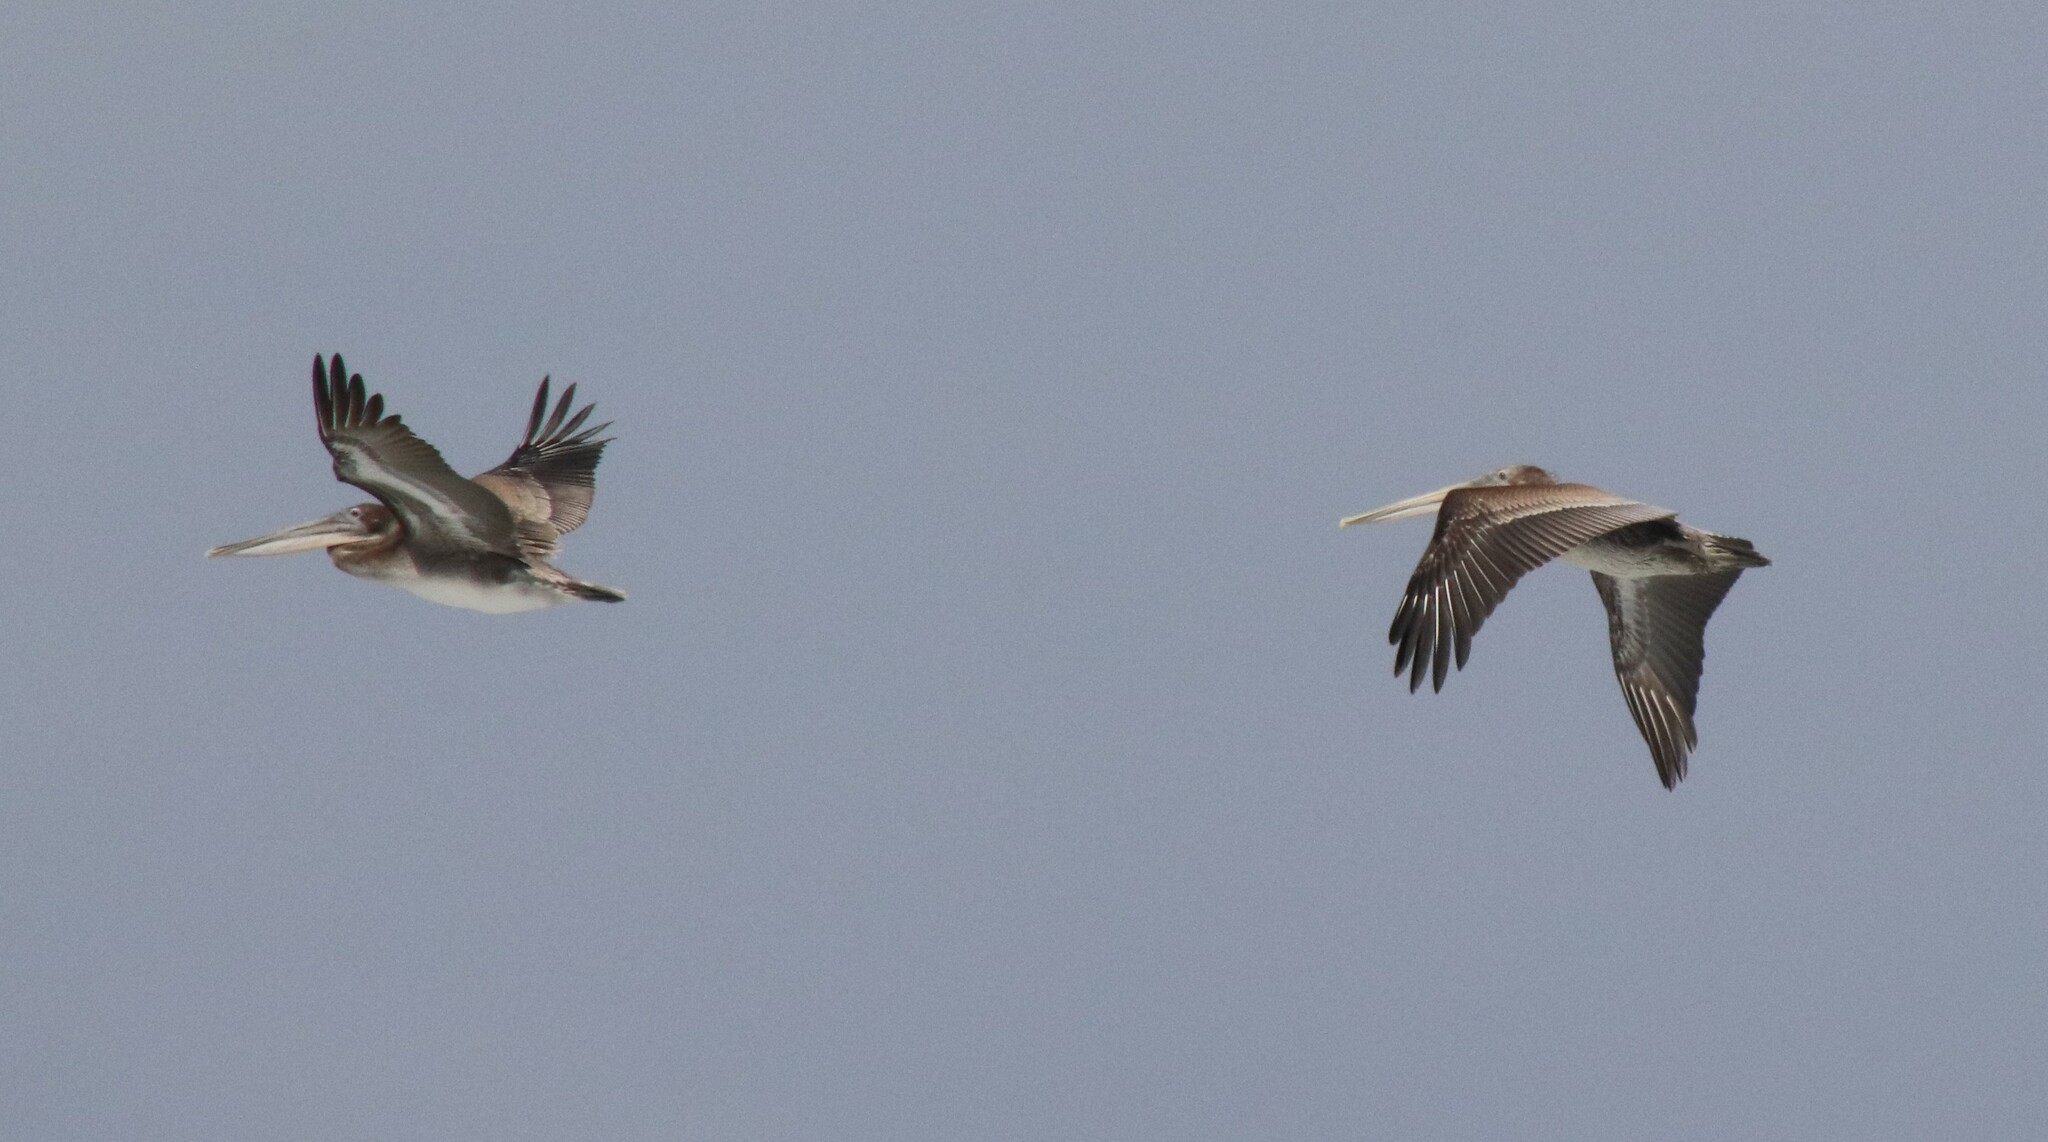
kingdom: Animalia
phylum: Chordata
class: Aves
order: Pelecaniformes
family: Pelecanidae
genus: Pelecanus
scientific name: Pelecanus occidentalis
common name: Brown pelican
